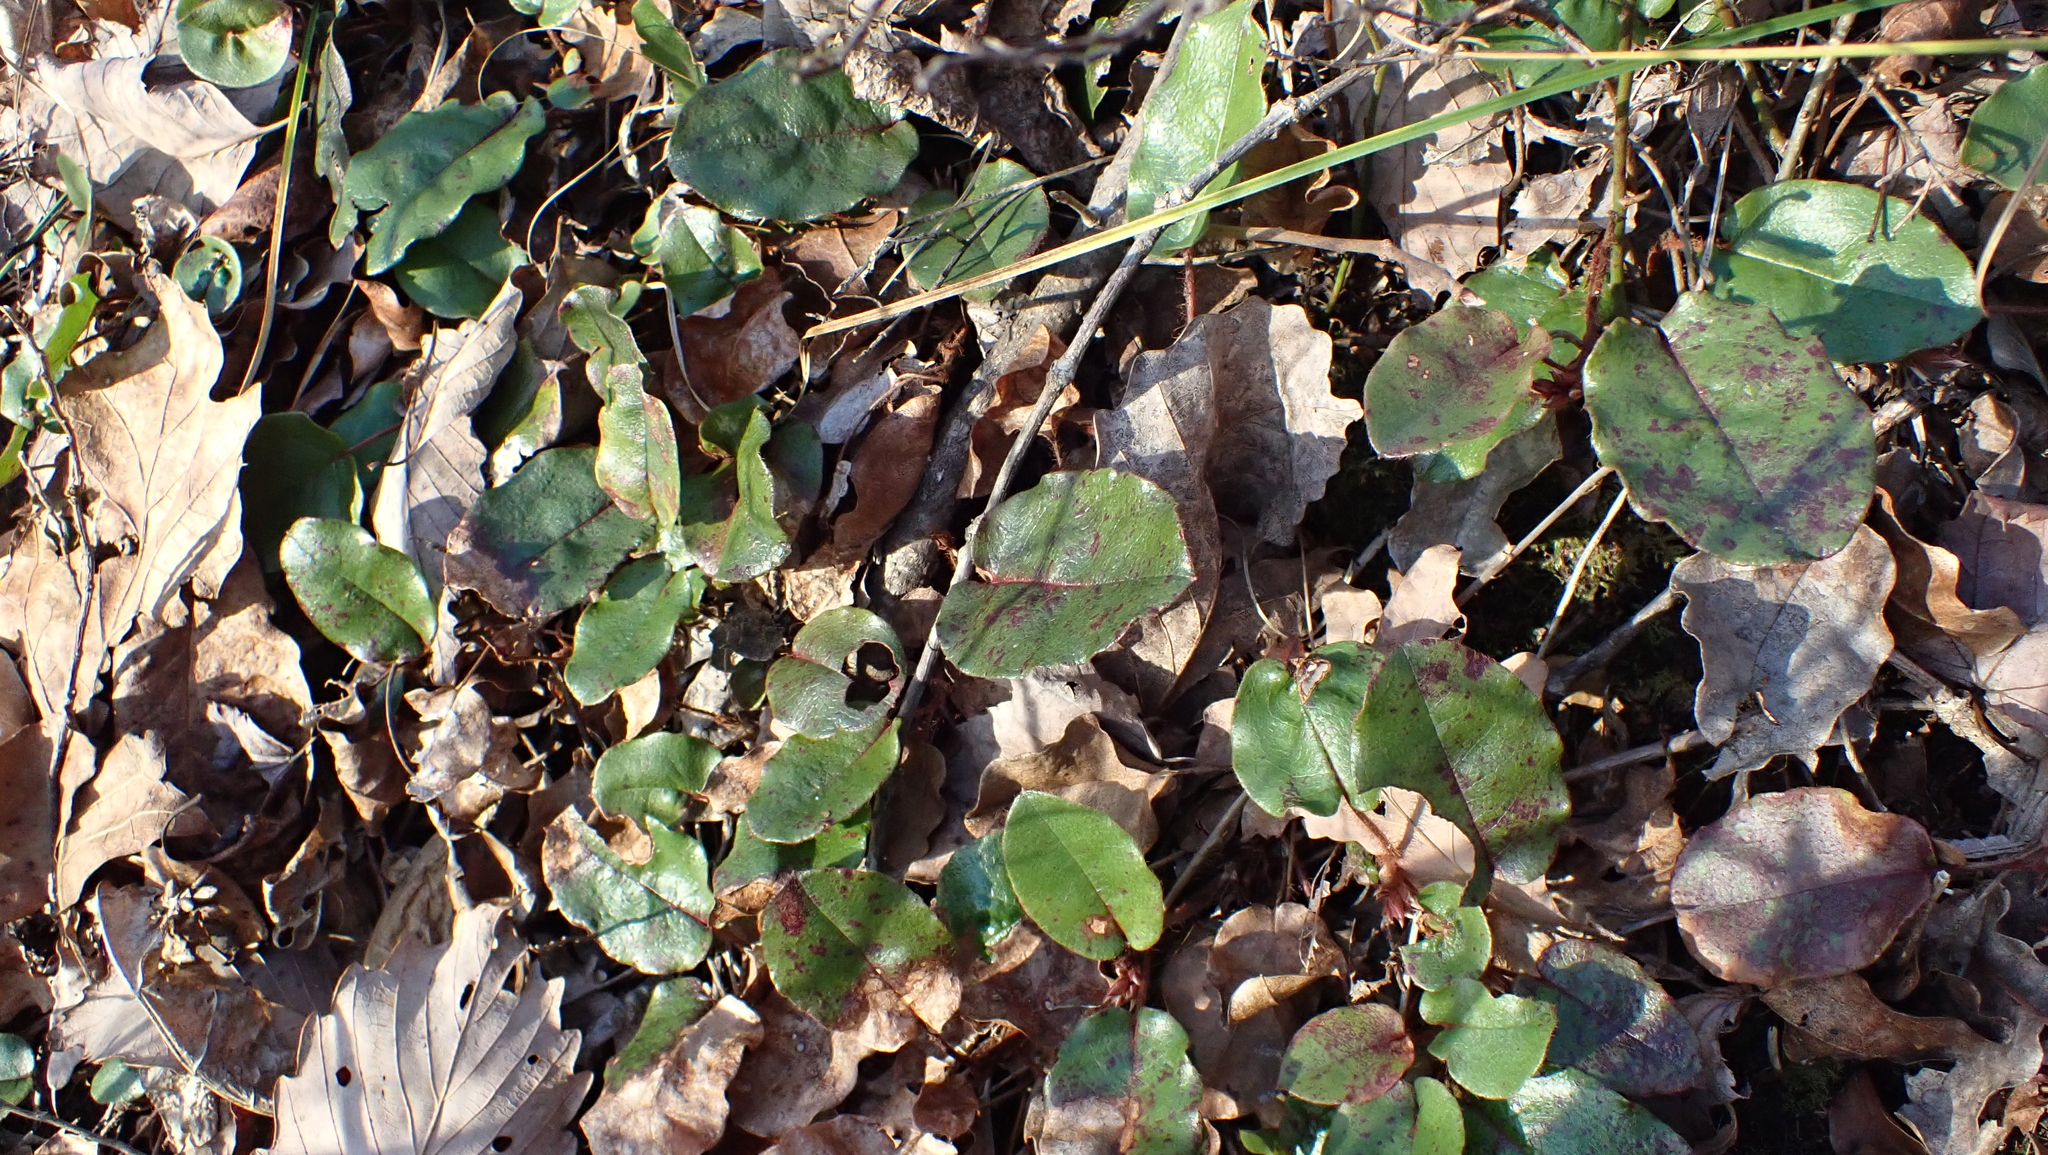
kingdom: Plantae
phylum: Tracheophyta
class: Magnoliopsida
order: Ericales
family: Ericaceae
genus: Epigaea
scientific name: Epigaea repens
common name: Gravelroot
